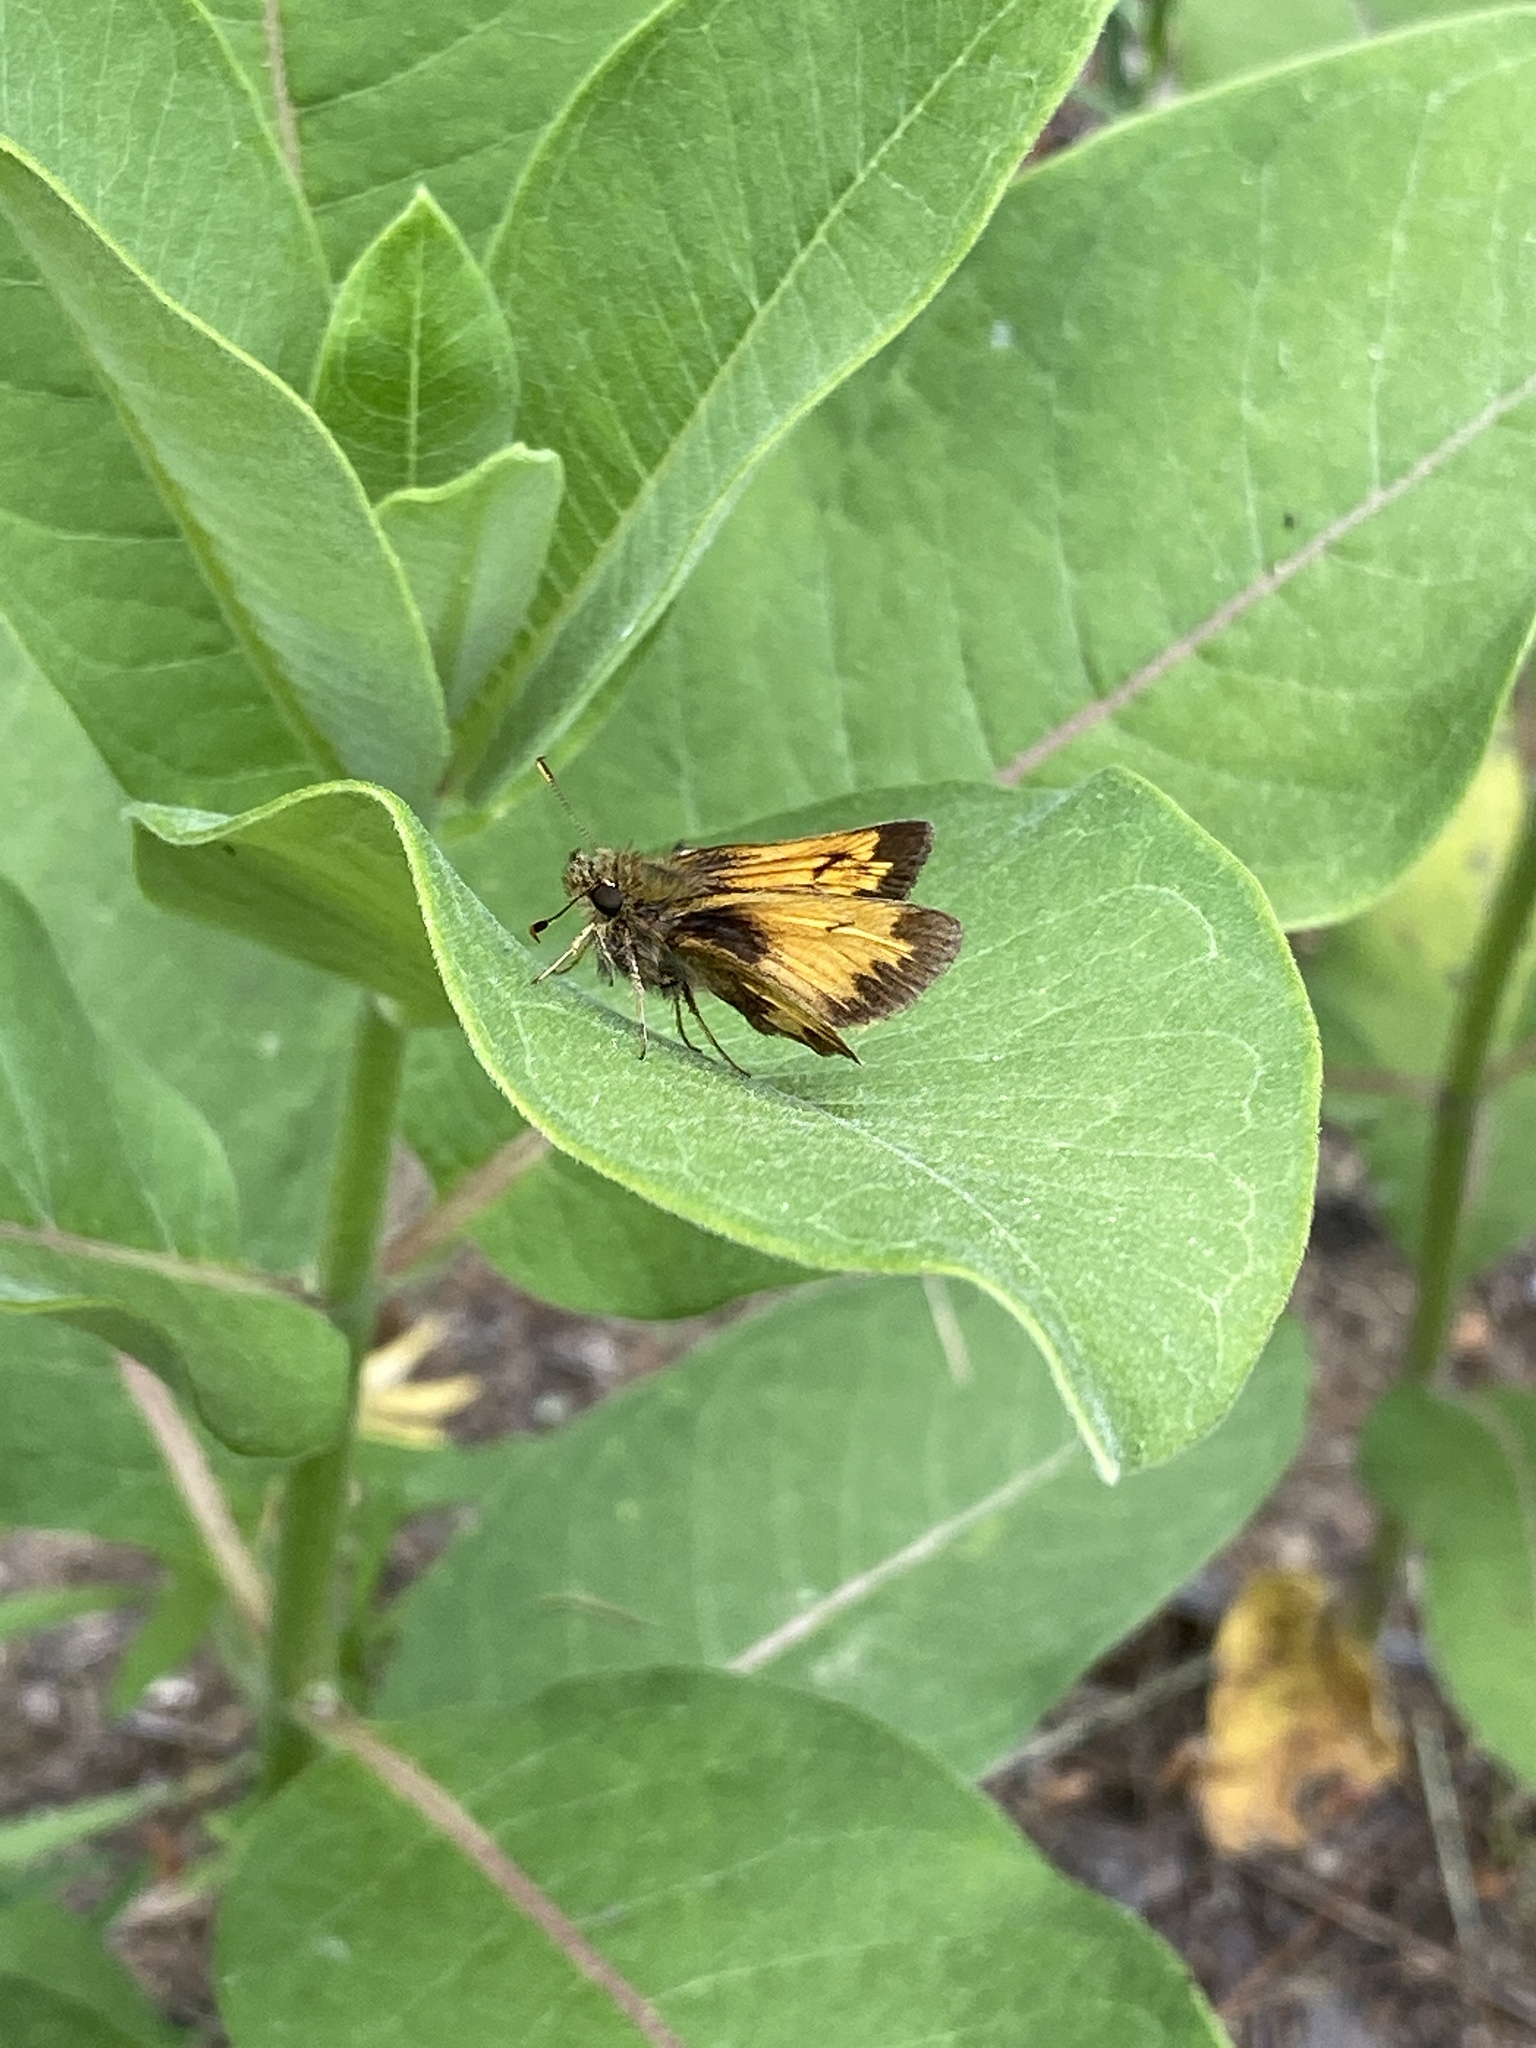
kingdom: Animalia
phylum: Arthropoda
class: Insecta
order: Lepidoptera
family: Hesperiidae
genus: Lon
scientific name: Lon hobomok
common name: Hobomok skipper
